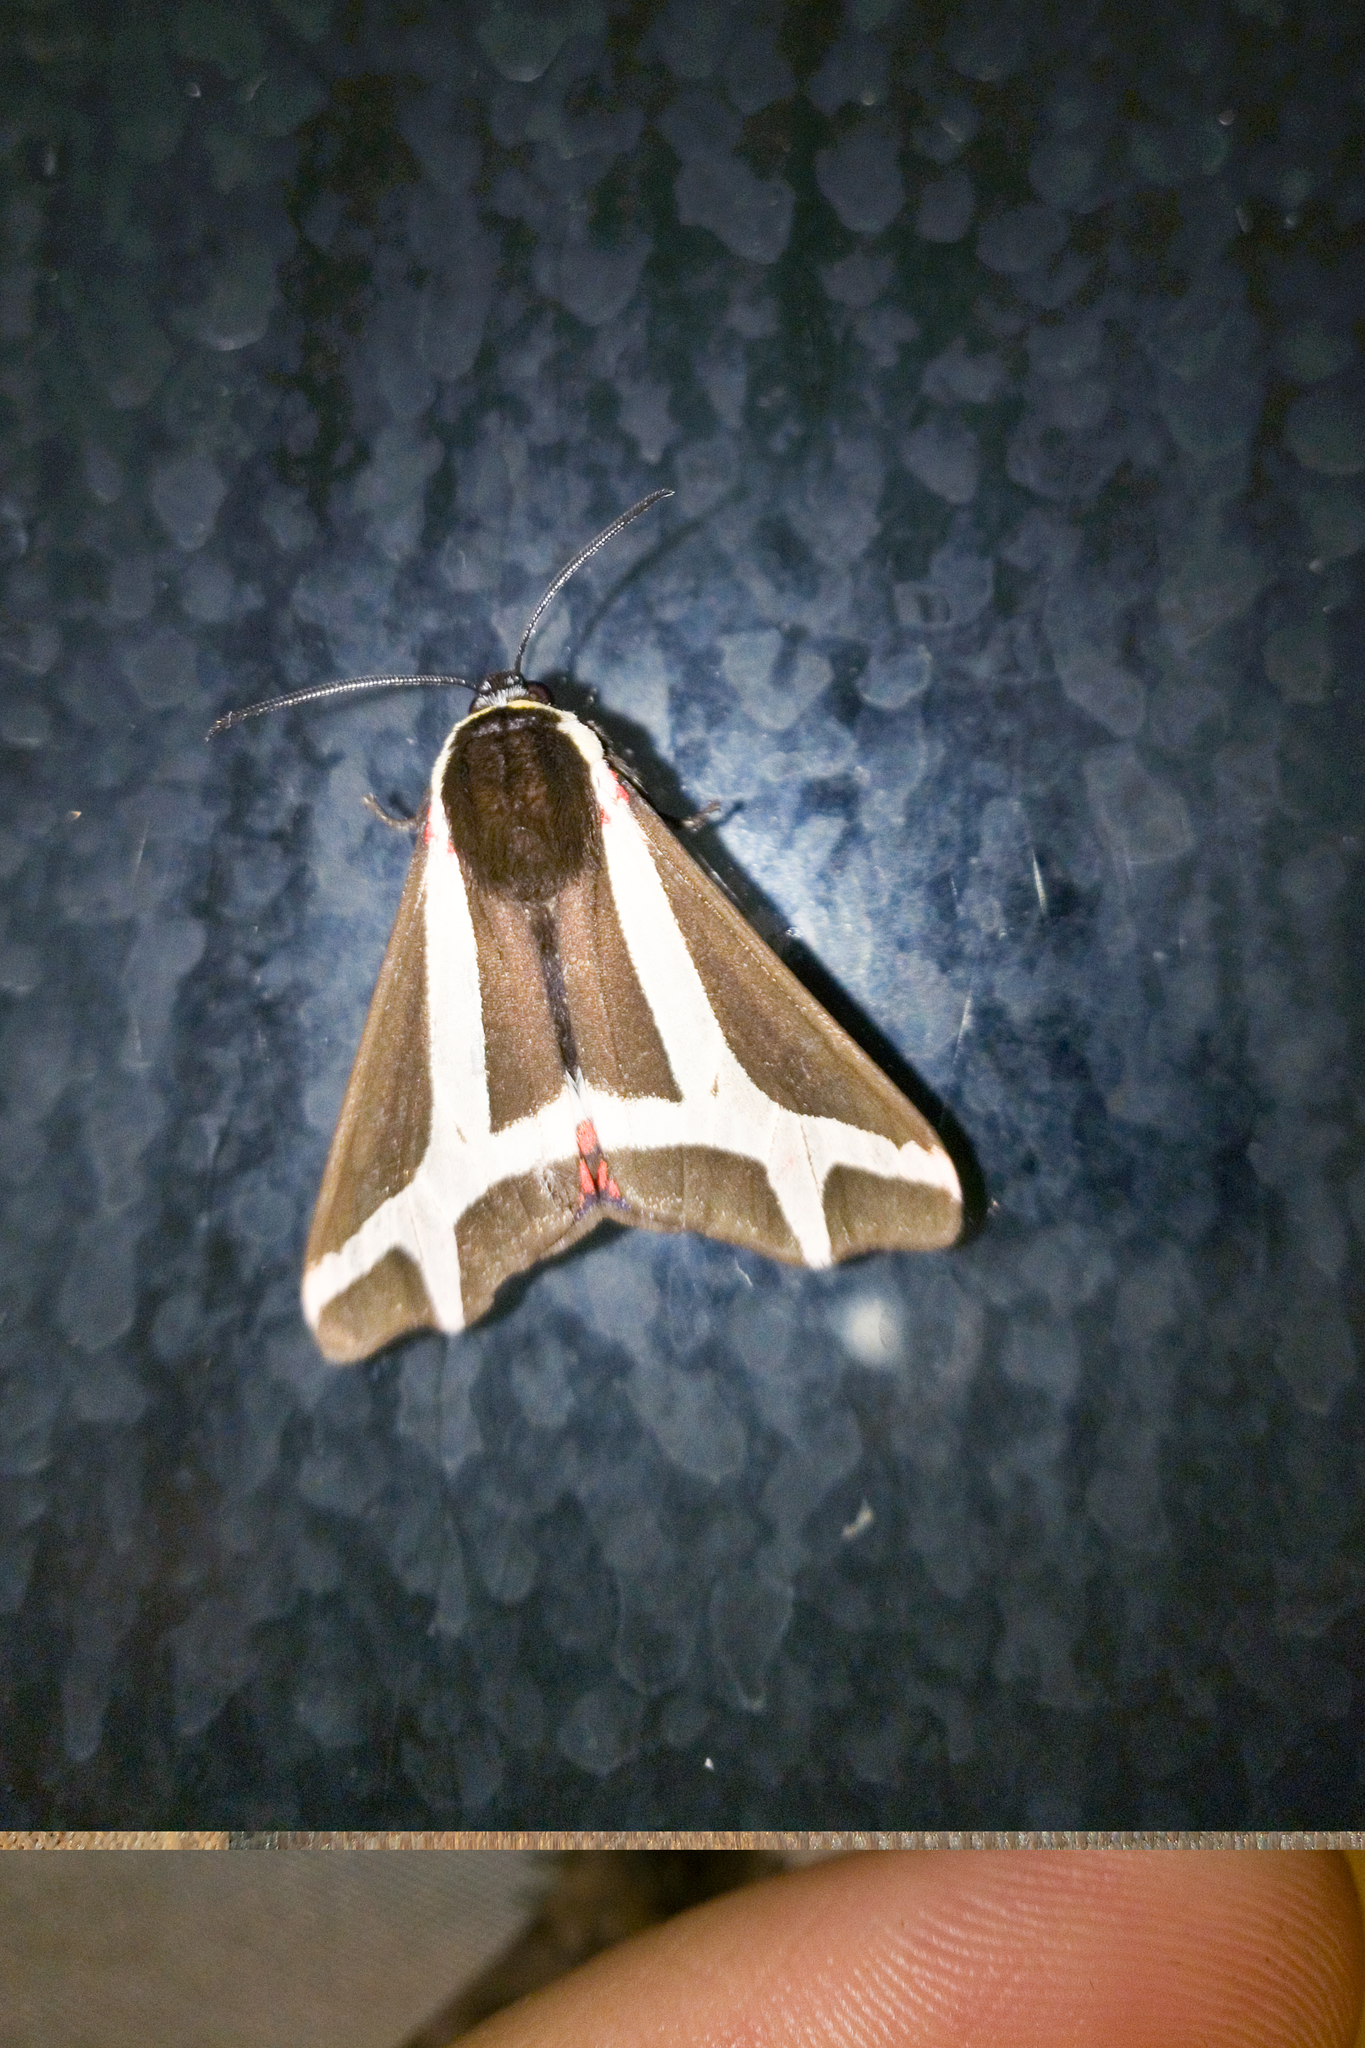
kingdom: Animalia
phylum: Arthropoda
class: Insecta
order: Lepidoptera
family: Erebidae
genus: Dysschema
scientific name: Dysschema sacrifica
